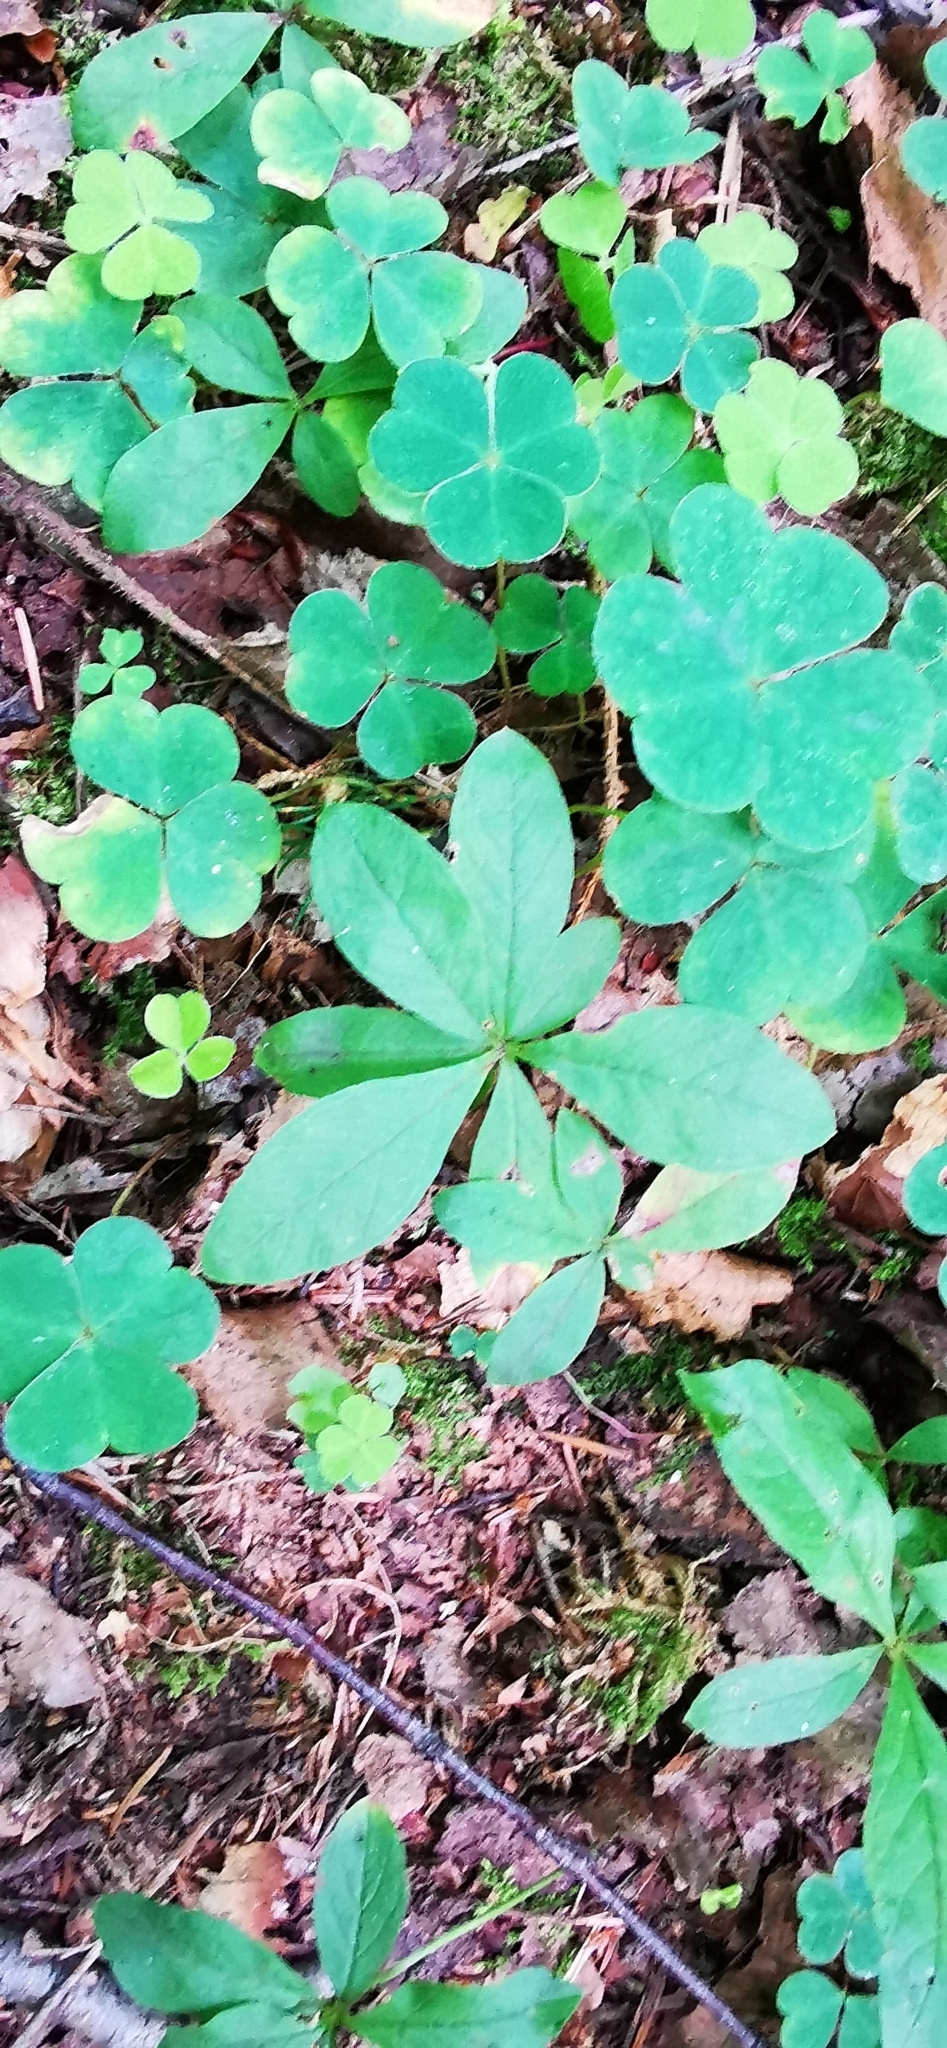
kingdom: Plantae
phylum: Tracheophyta
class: Magnoliopsida
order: Ericales
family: Primulaceae
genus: Lysimachia
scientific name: Lysimachia europaea
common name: Arctic starflower
